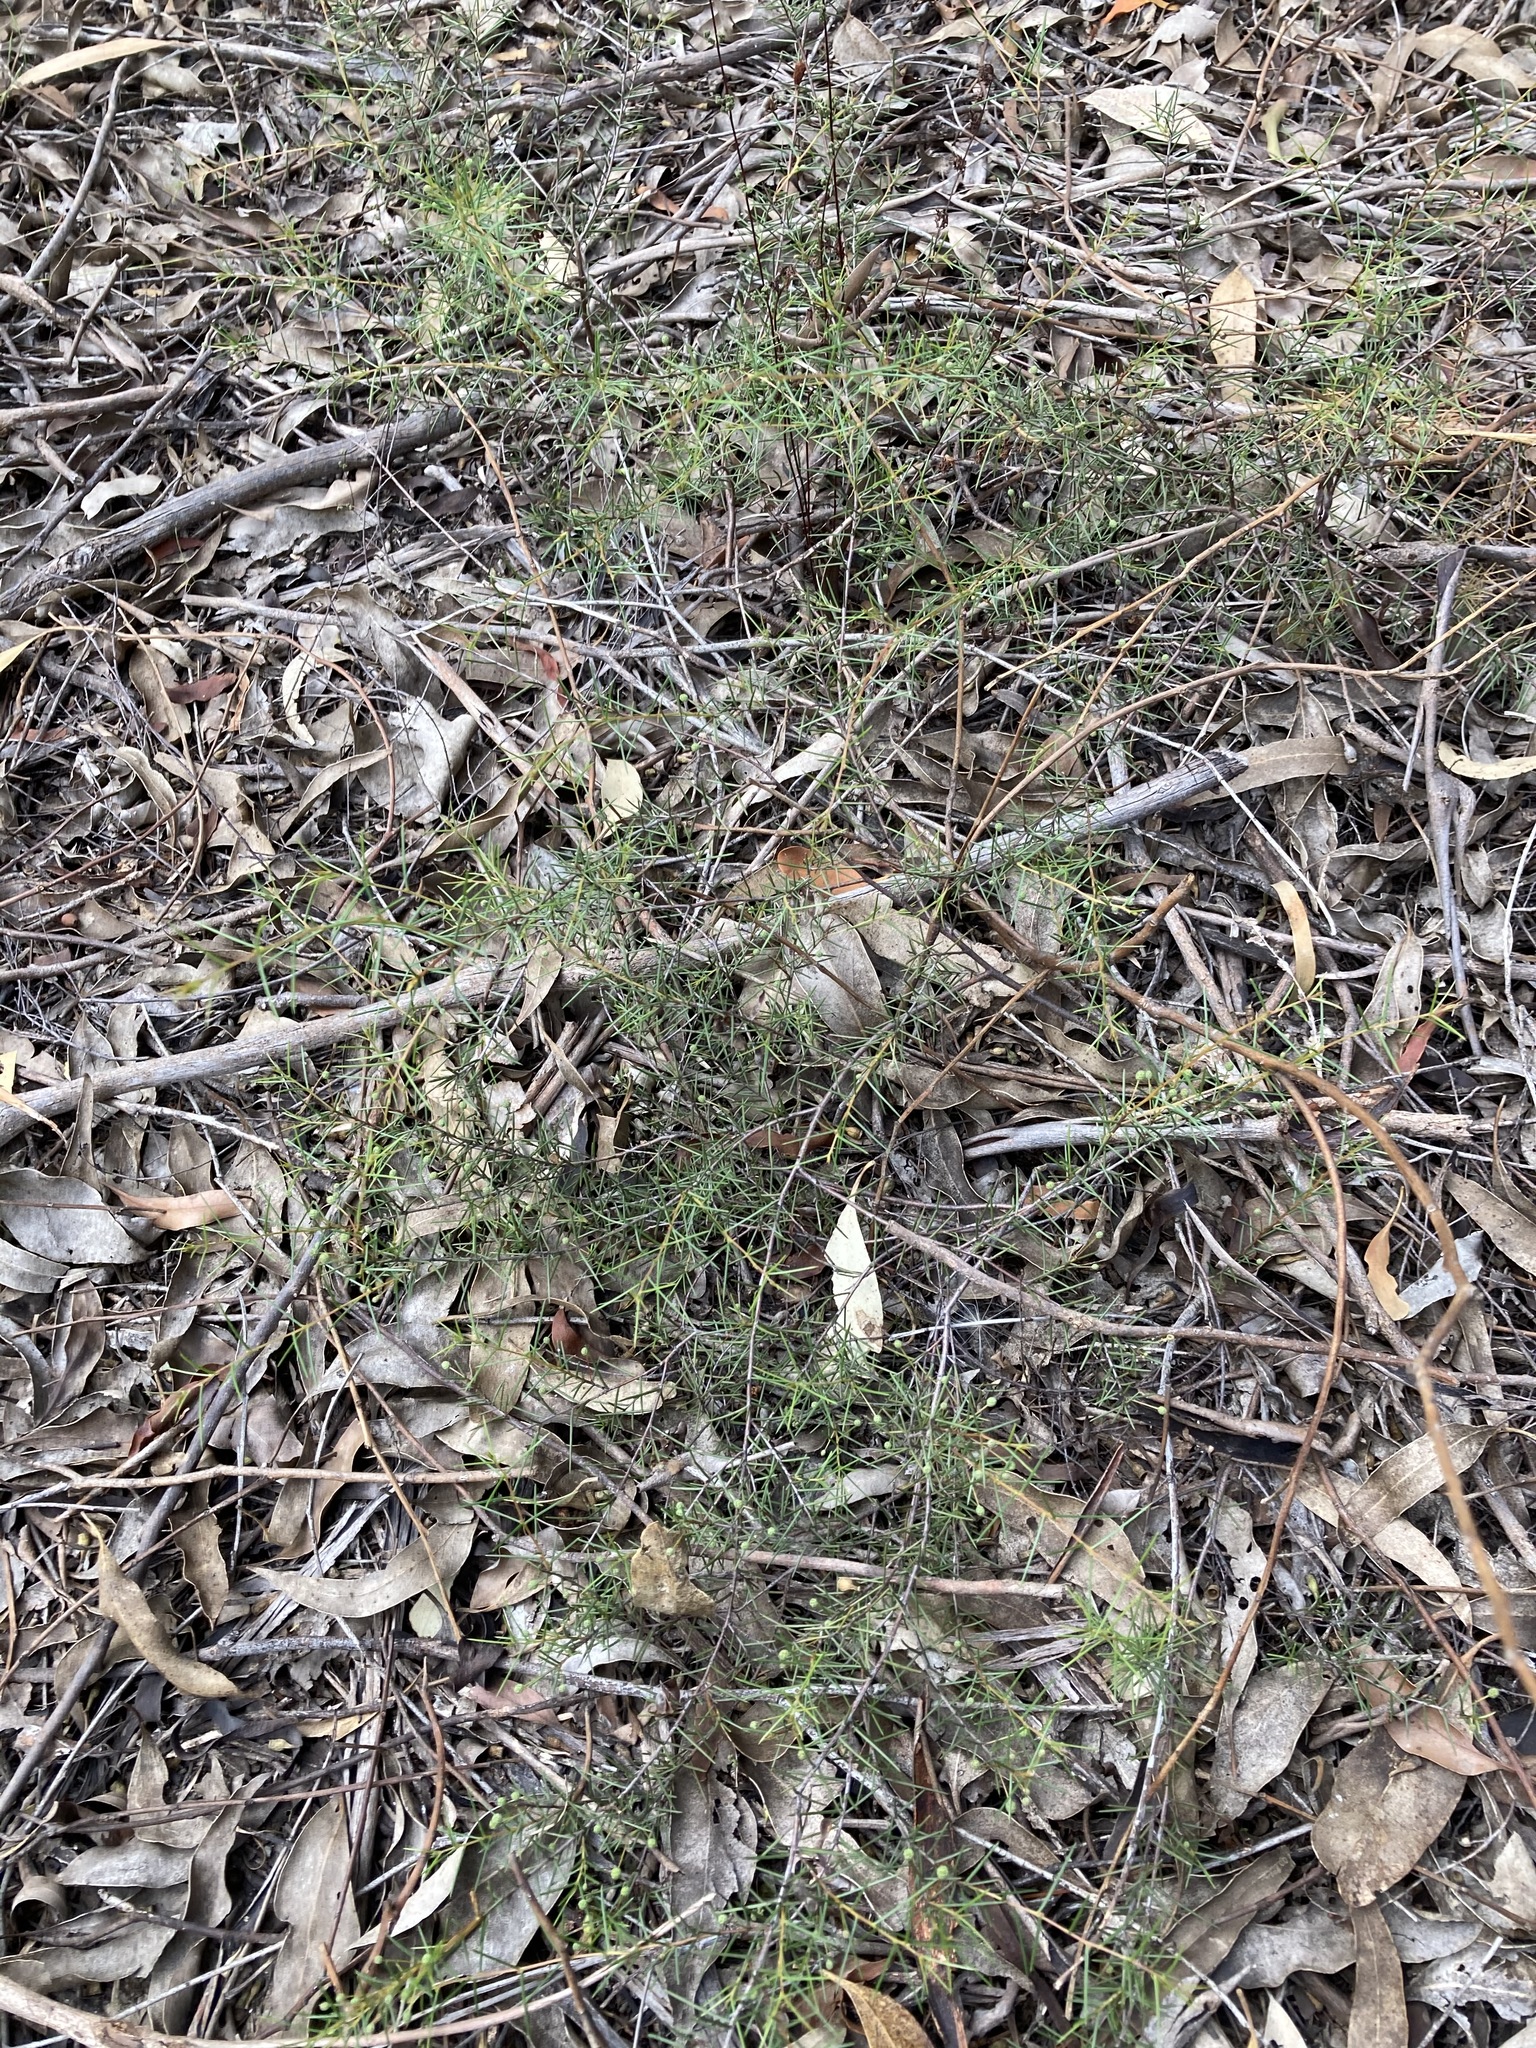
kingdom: Plantae
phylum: Tracheophyta
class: Magnoliopsida
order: Fabales
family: Fabaceae
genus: Acacia
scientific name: Acacia brownii
